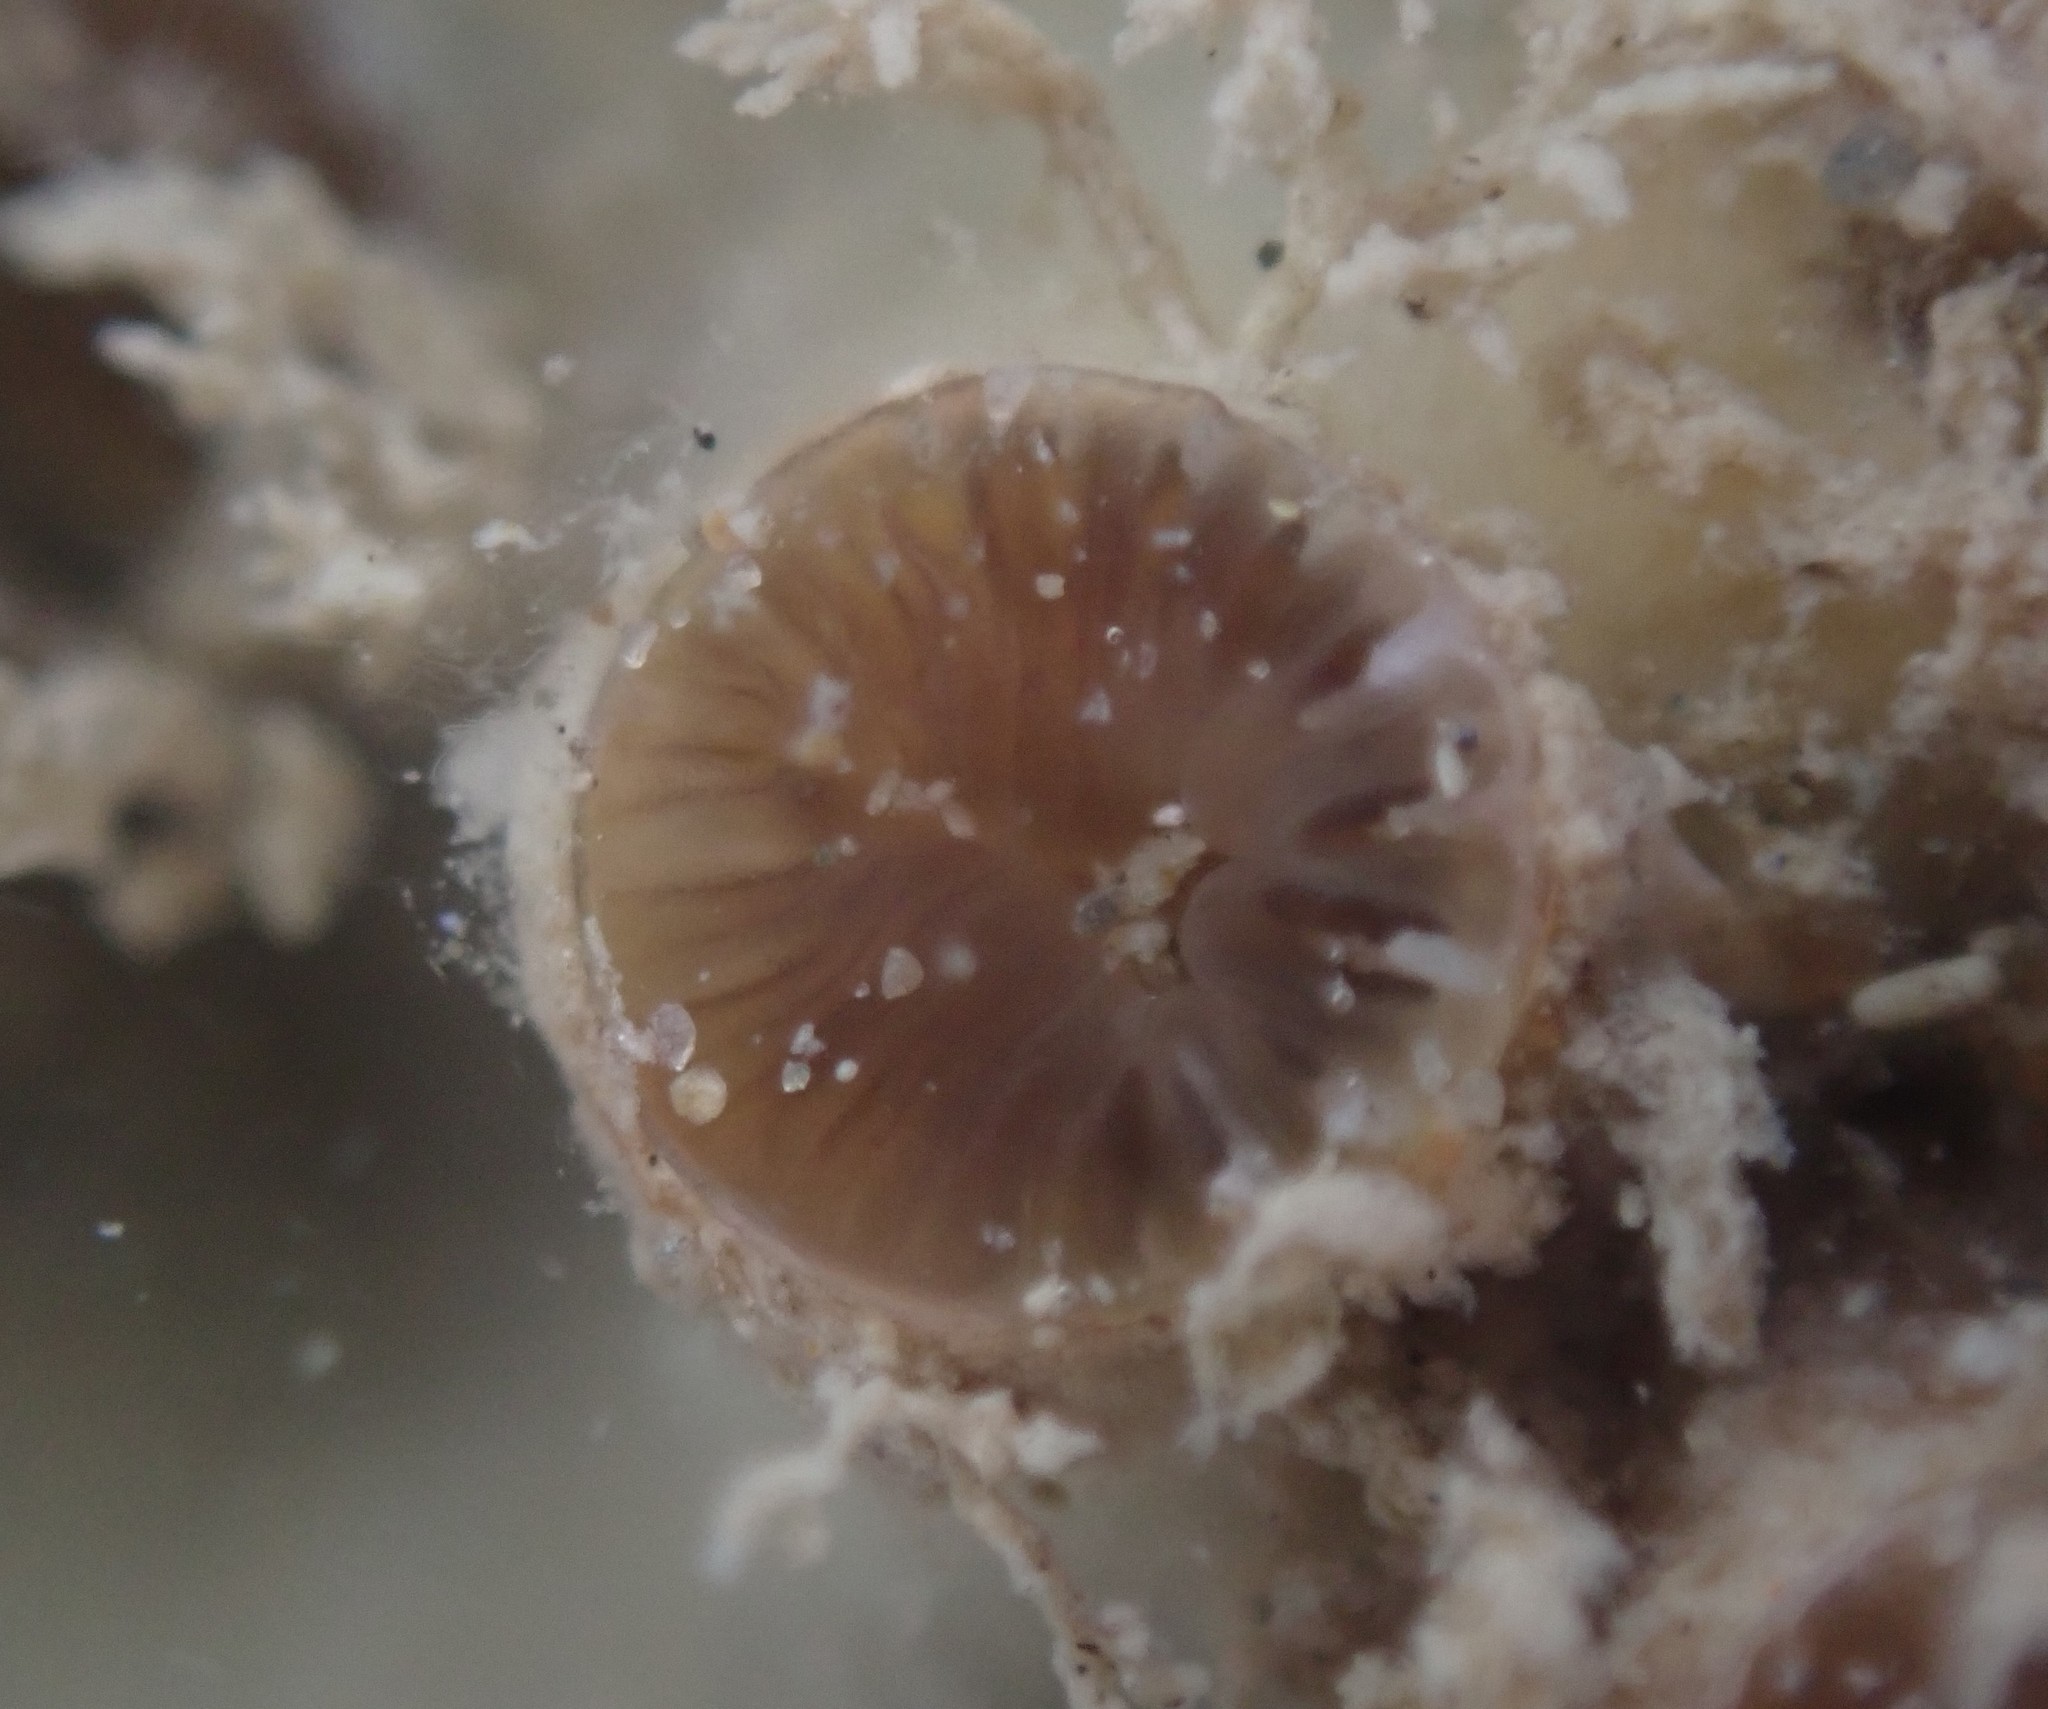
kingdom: Animalia
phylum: Cnidaria
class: Anthozoa
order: Scleractinia
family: Rhizangiidae
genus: Culicia
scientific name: Culicia rubeola
